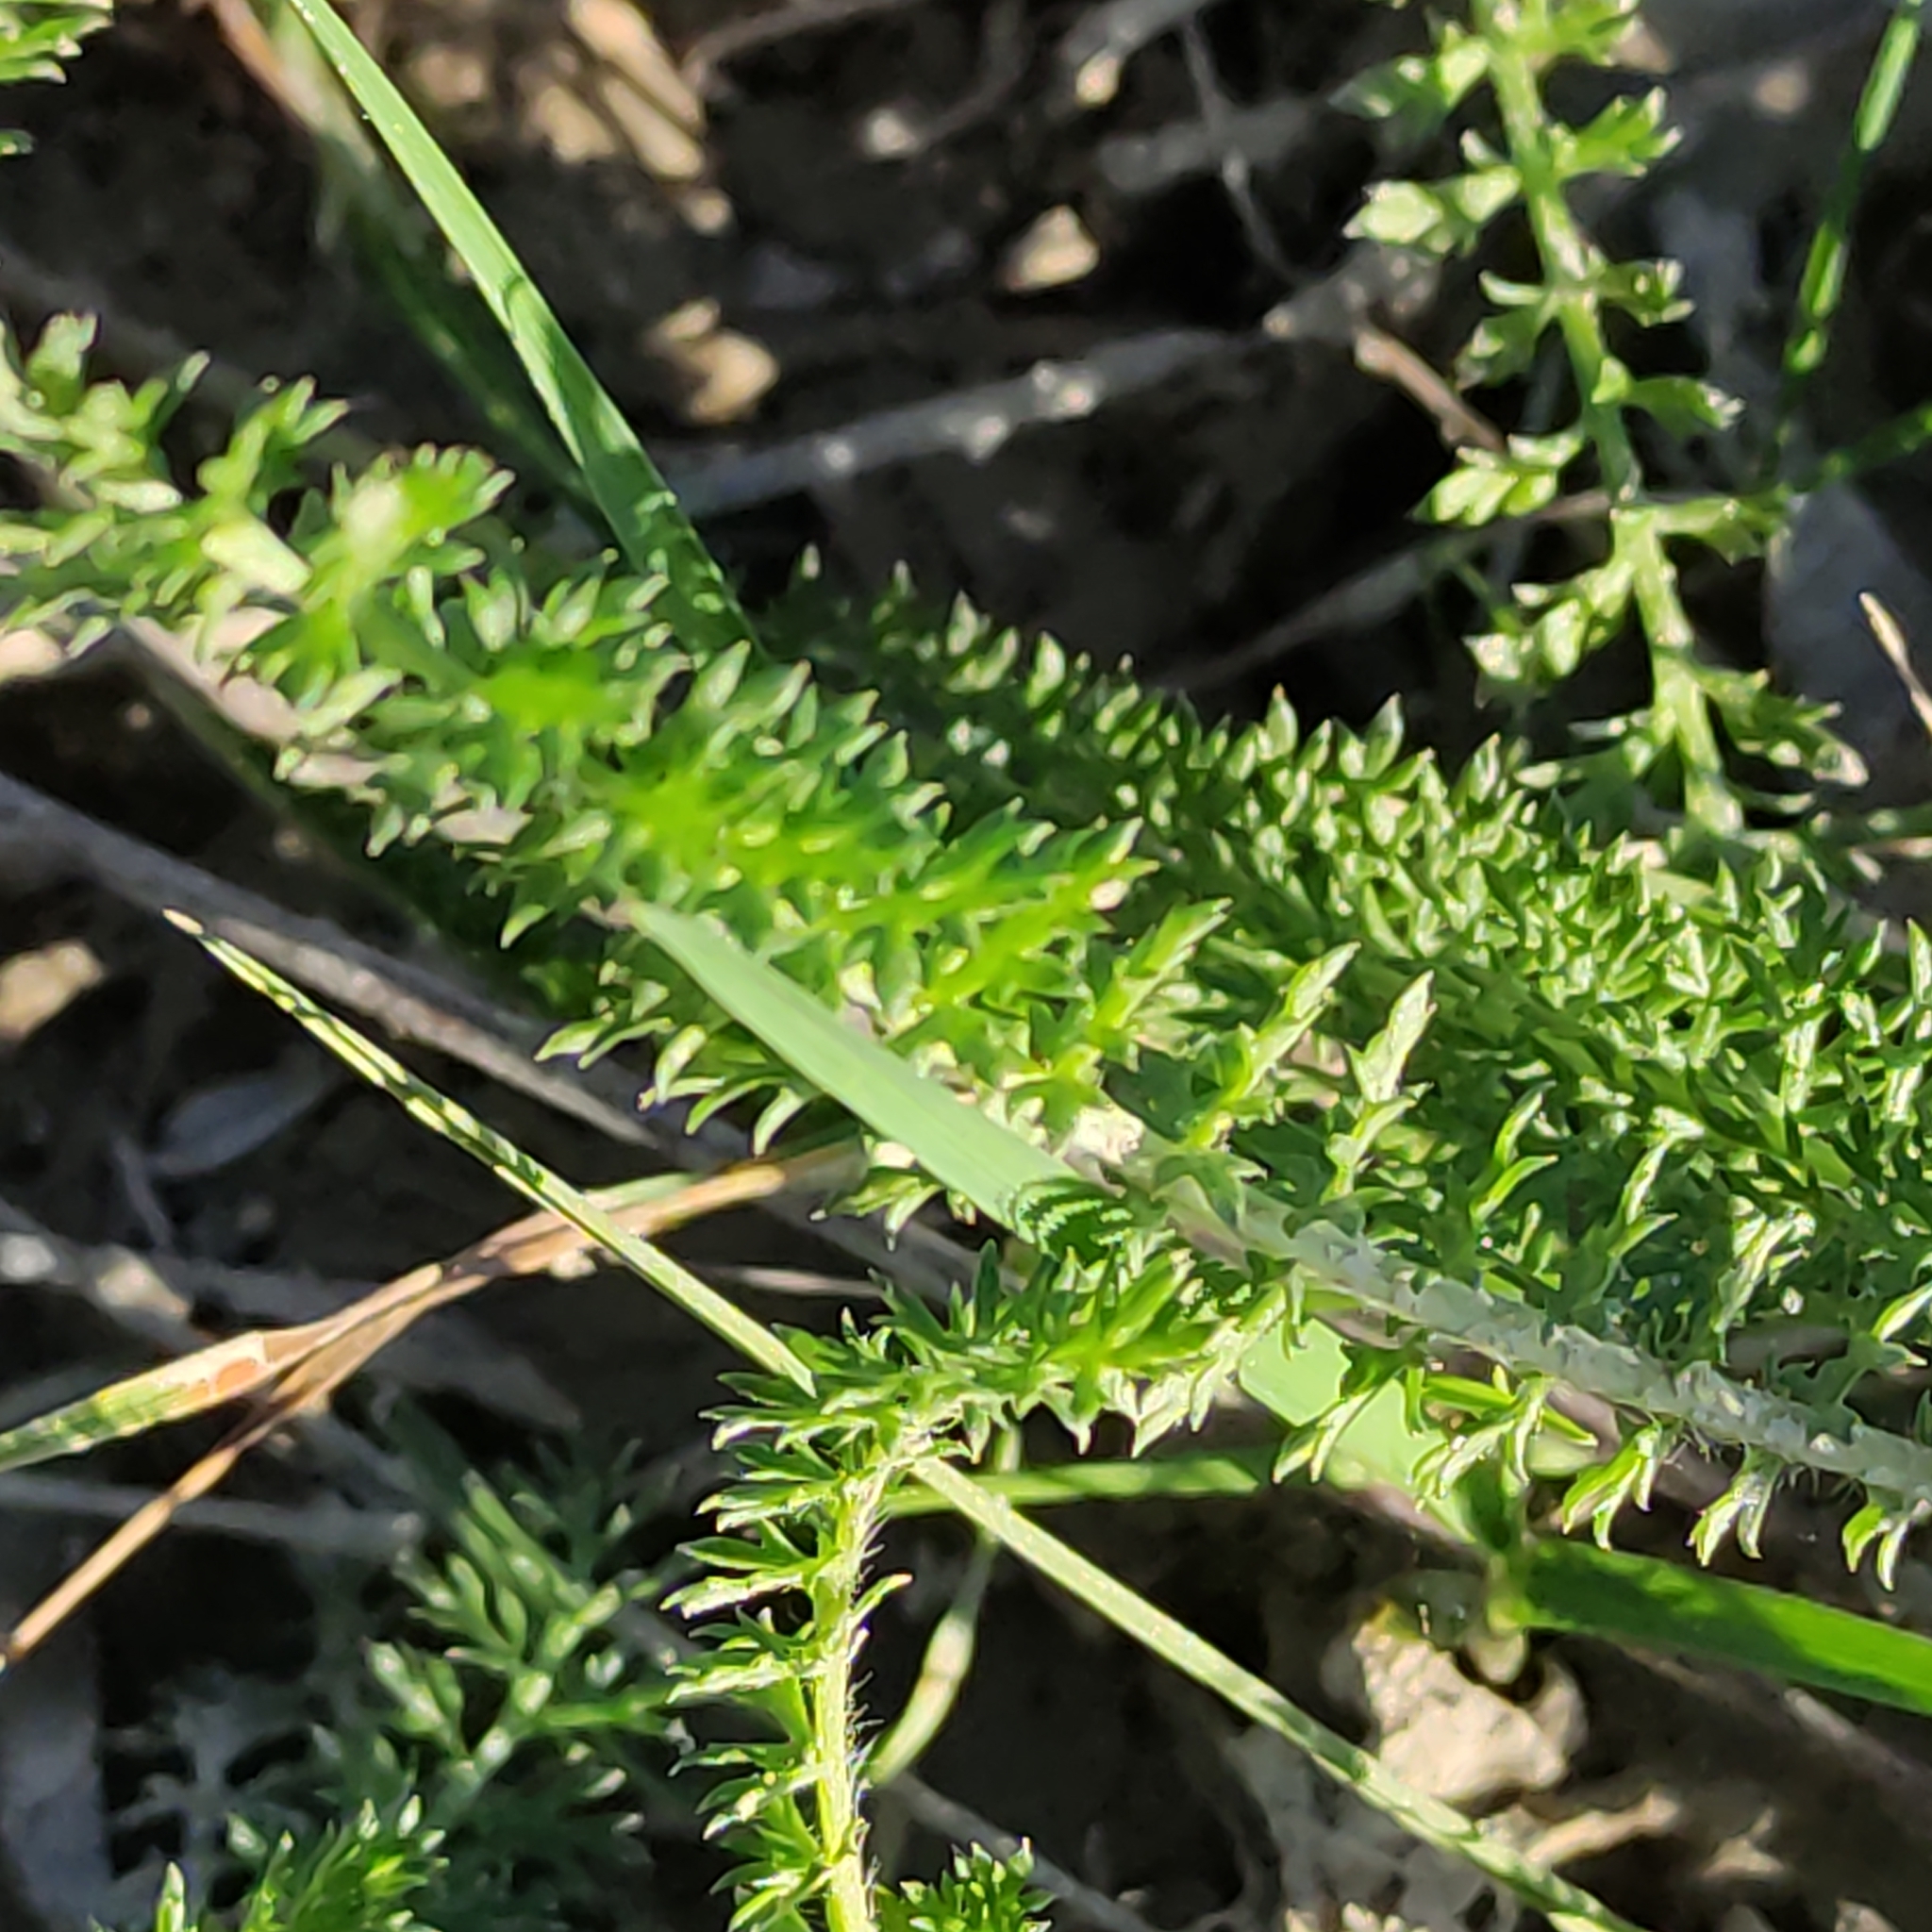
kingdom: Plantae
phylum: Tracheophyta
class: Magnoliopsida
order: Asterales
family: Asteraceae
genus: Achillea
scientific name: Achillea millefolium
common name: Yarrow
